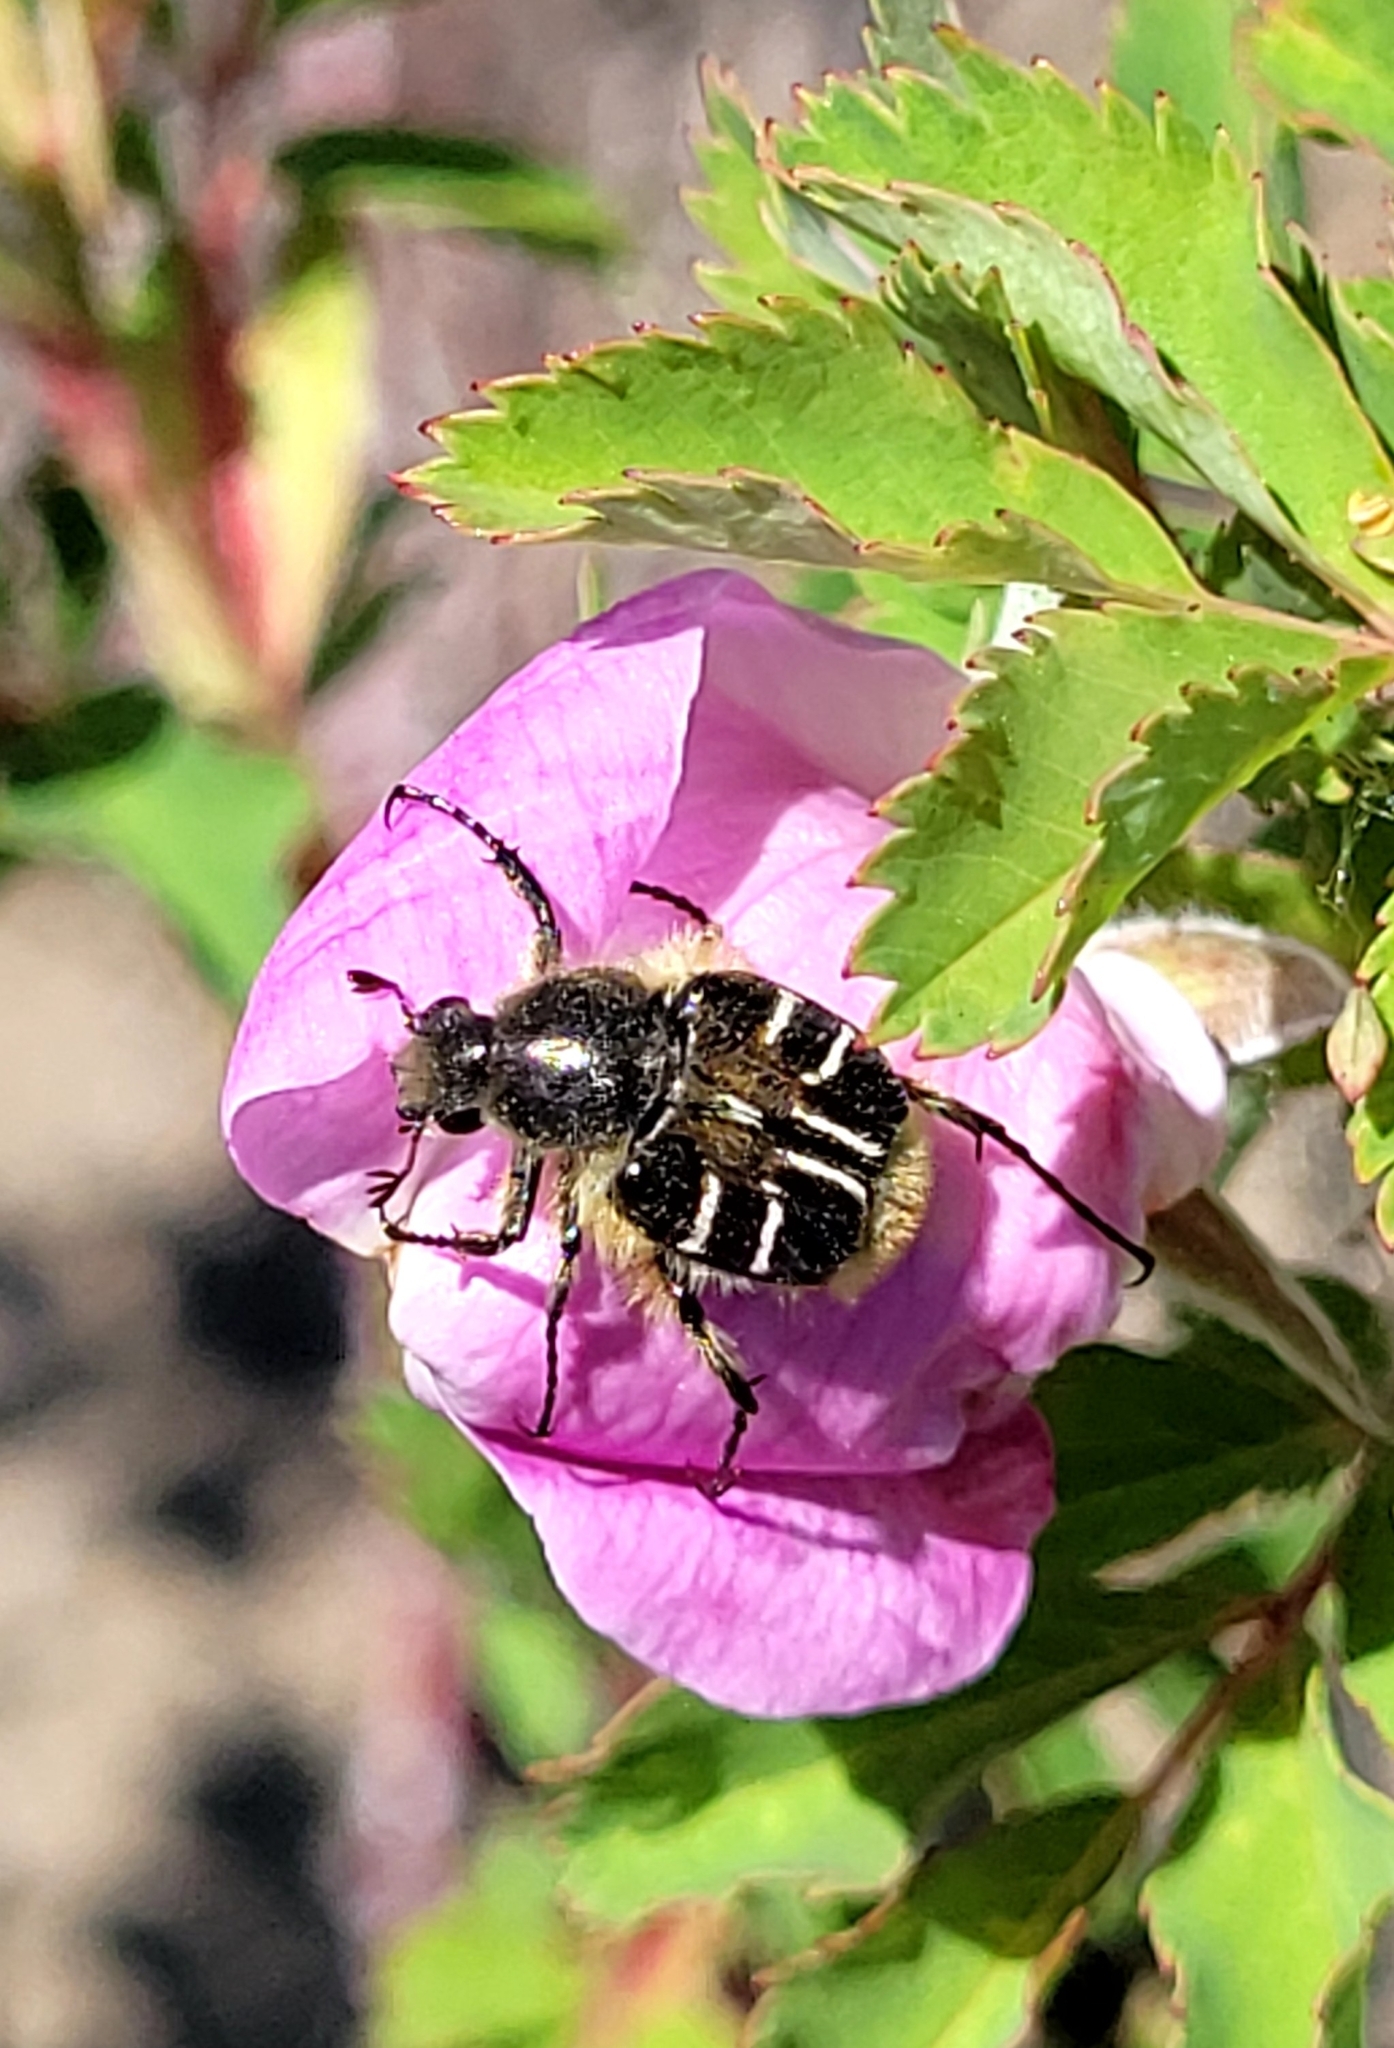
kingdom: Animalia
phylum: Arthropoda
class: Insecta
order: Coleoptera
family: Scarabaeidae
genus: Trichiotinus
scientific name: Trichiotinus assimilis
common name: Bee-mimic beetle
